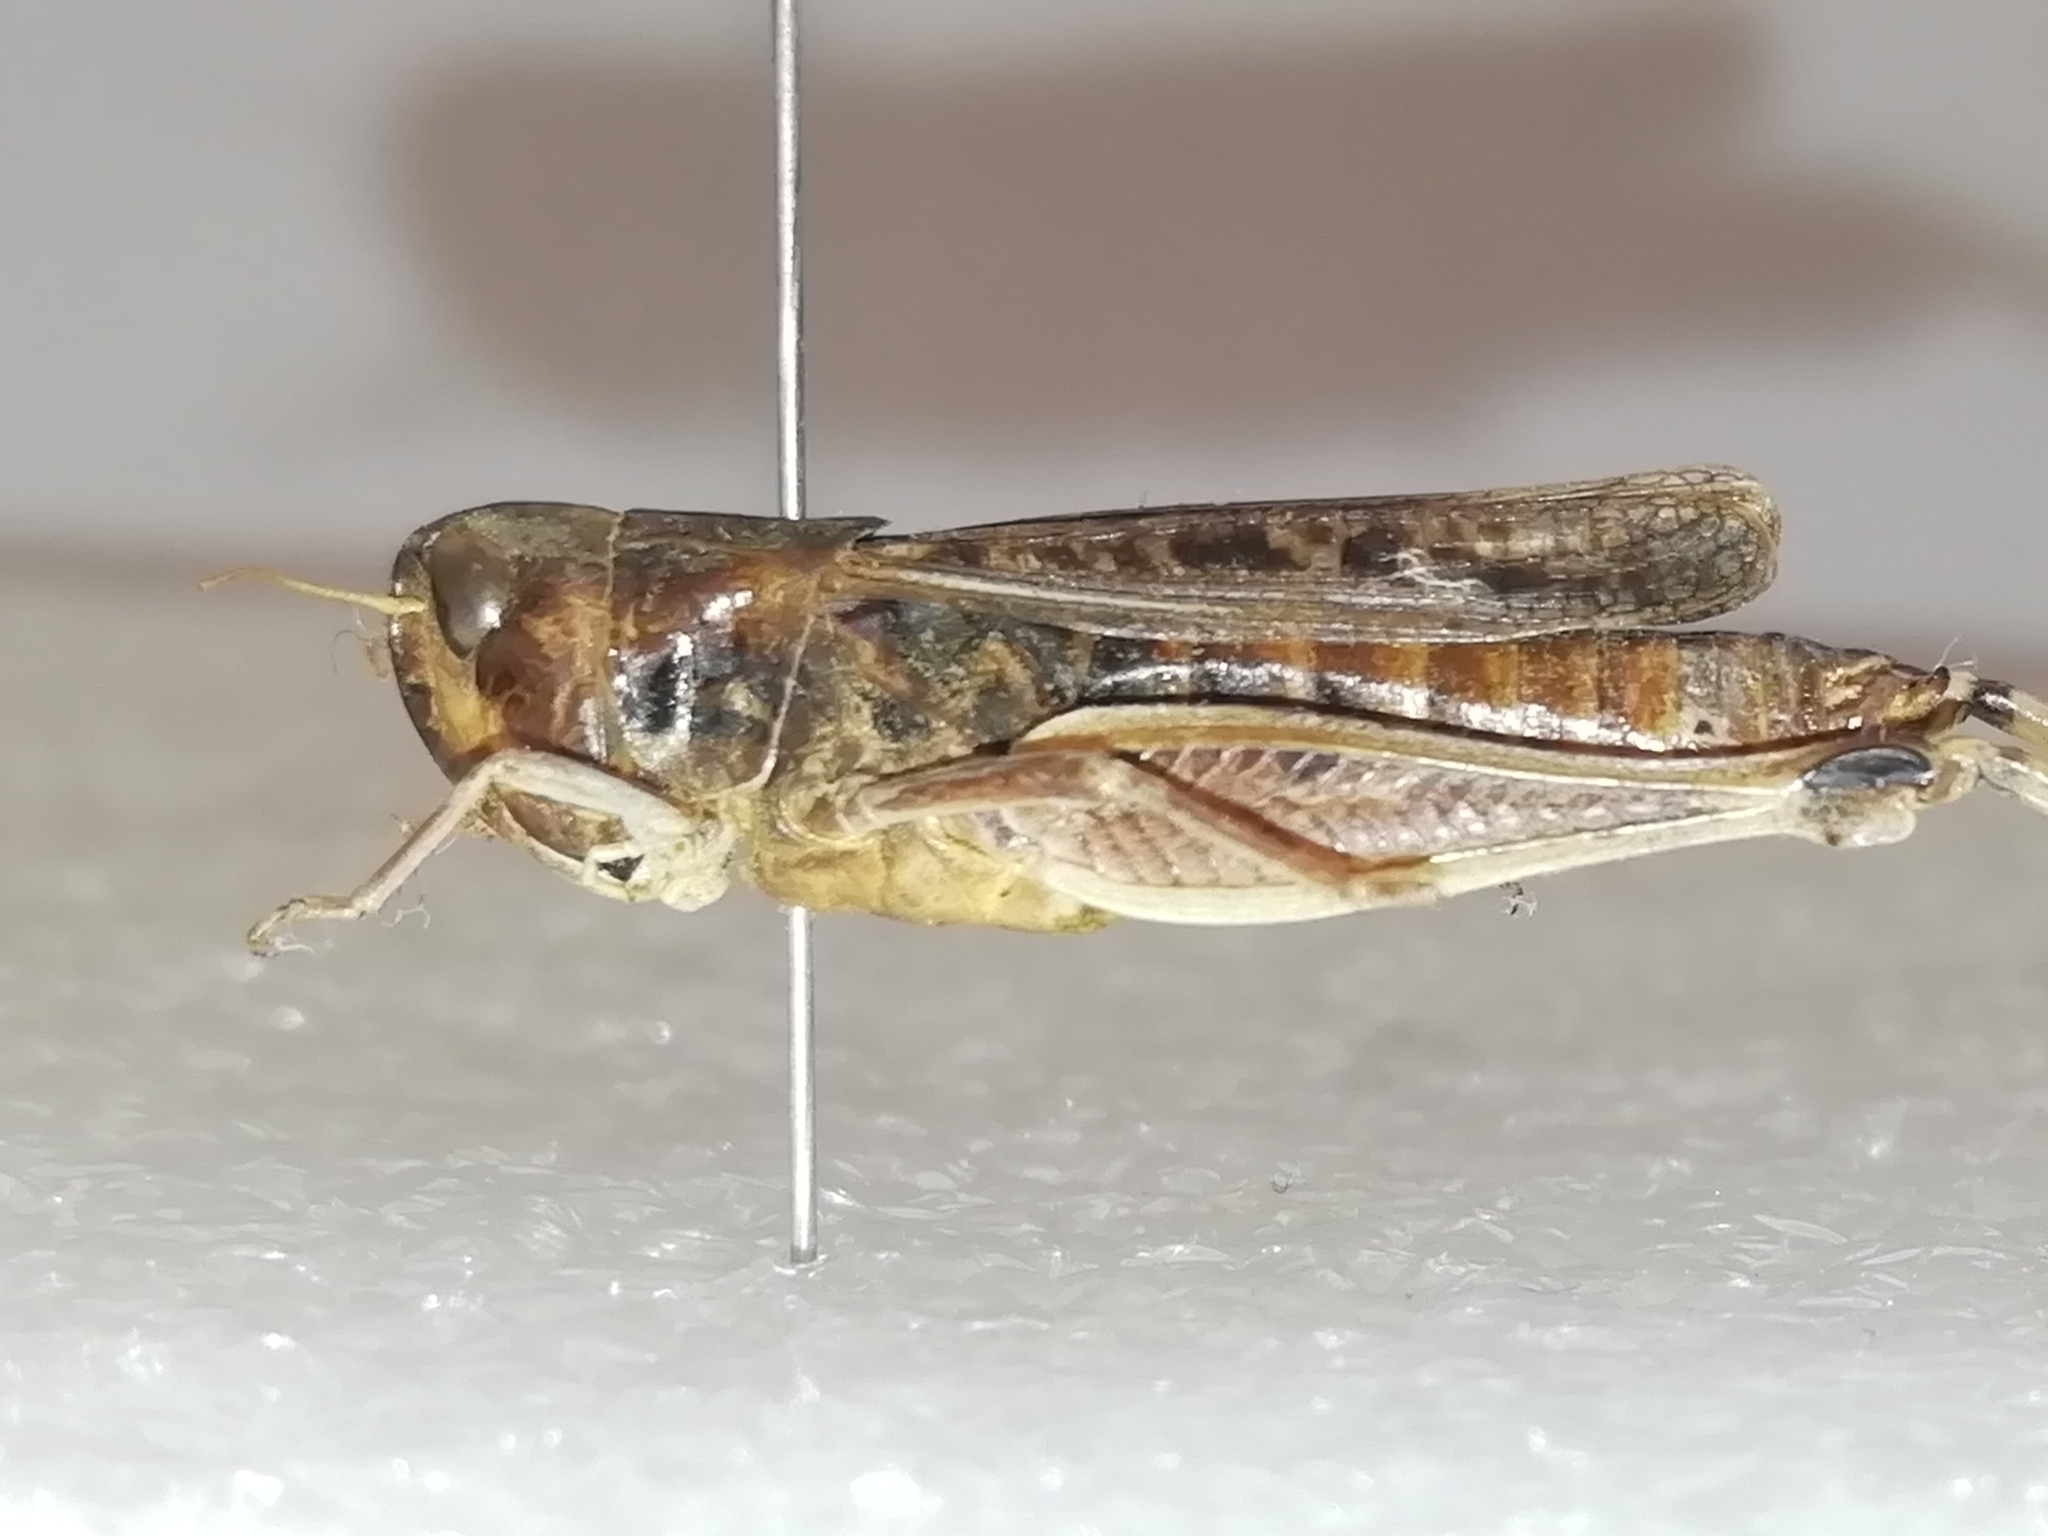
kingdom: Animalia
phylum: Arthropoda
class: Insecta
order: Orthoptera
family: Acrididae
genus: Stenobothrus
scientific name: Stenobothrus eurasius
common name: Eurasian toothed grasshopper
